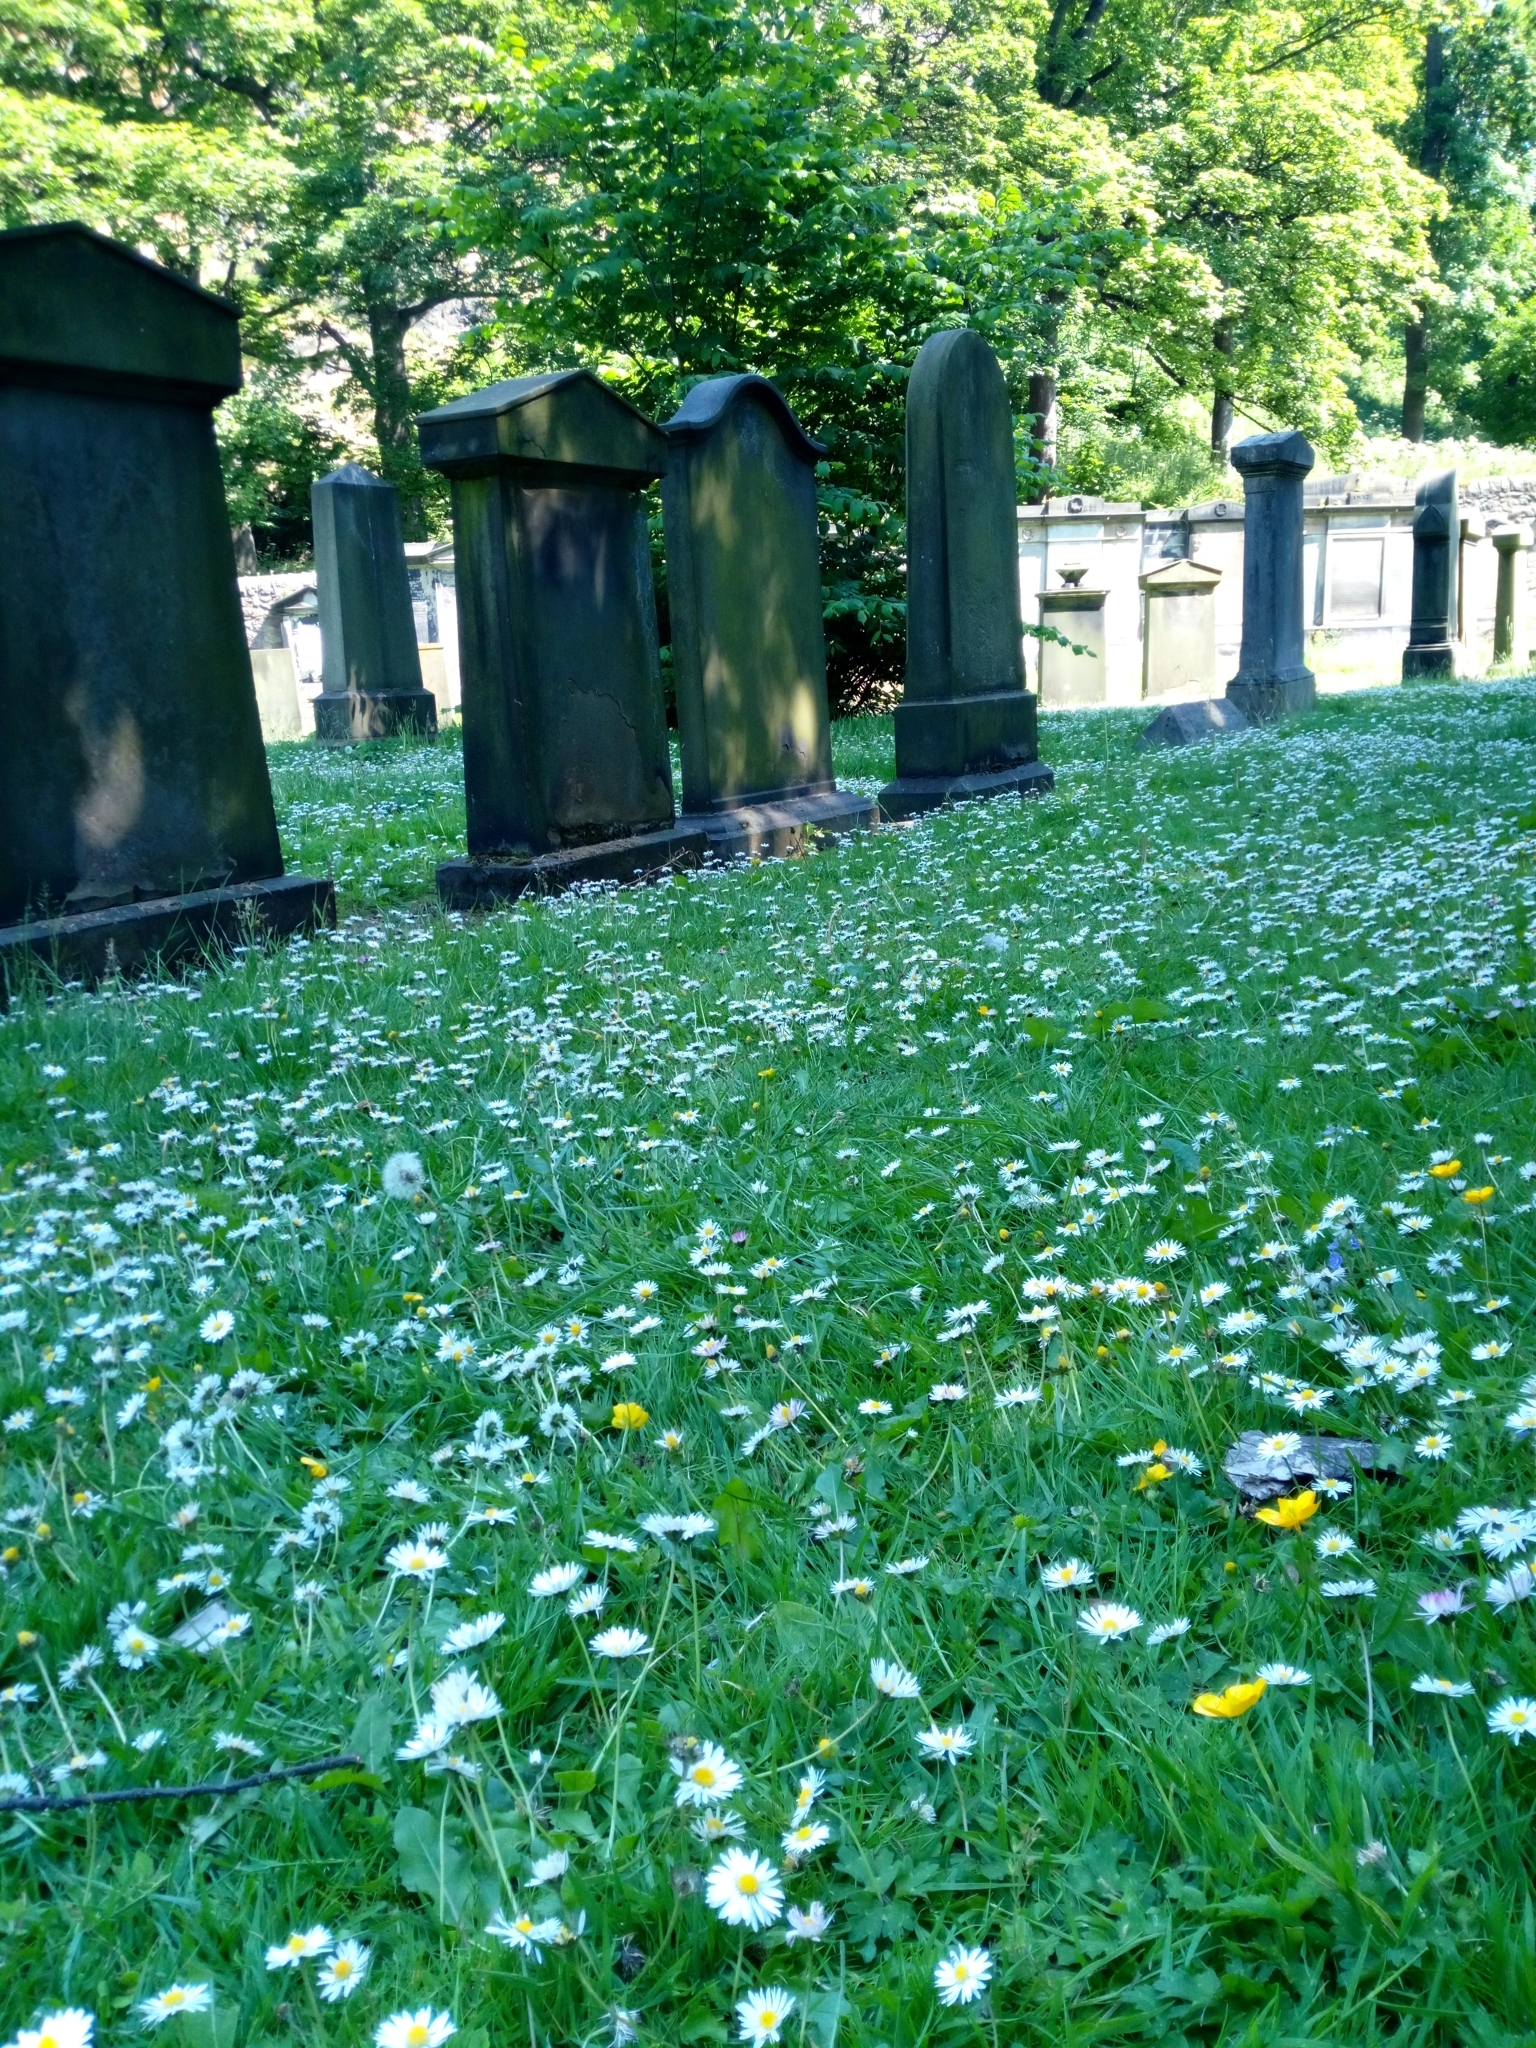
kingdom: Plantae
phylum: Tracheophyta
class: Magnoliopsida
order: Asterales
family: Asteraceae
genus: Bellis
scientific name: Bellis perennis
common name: Lawndaisy
